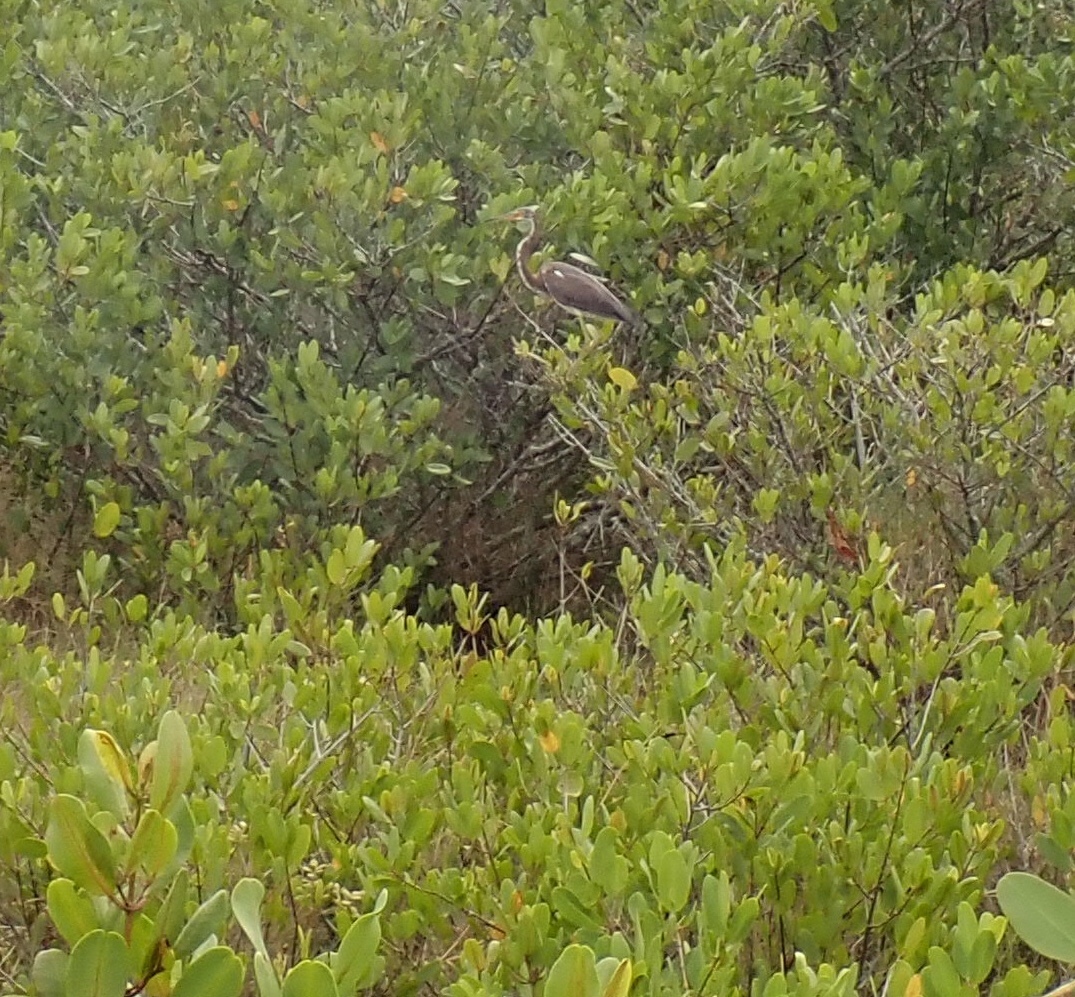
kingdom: Animalia
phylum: Chordata
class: Aves
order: Pelecaniformes
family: Ardeidae
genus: Egretta
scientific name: Egretta tricolor
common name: Tricolored heron
